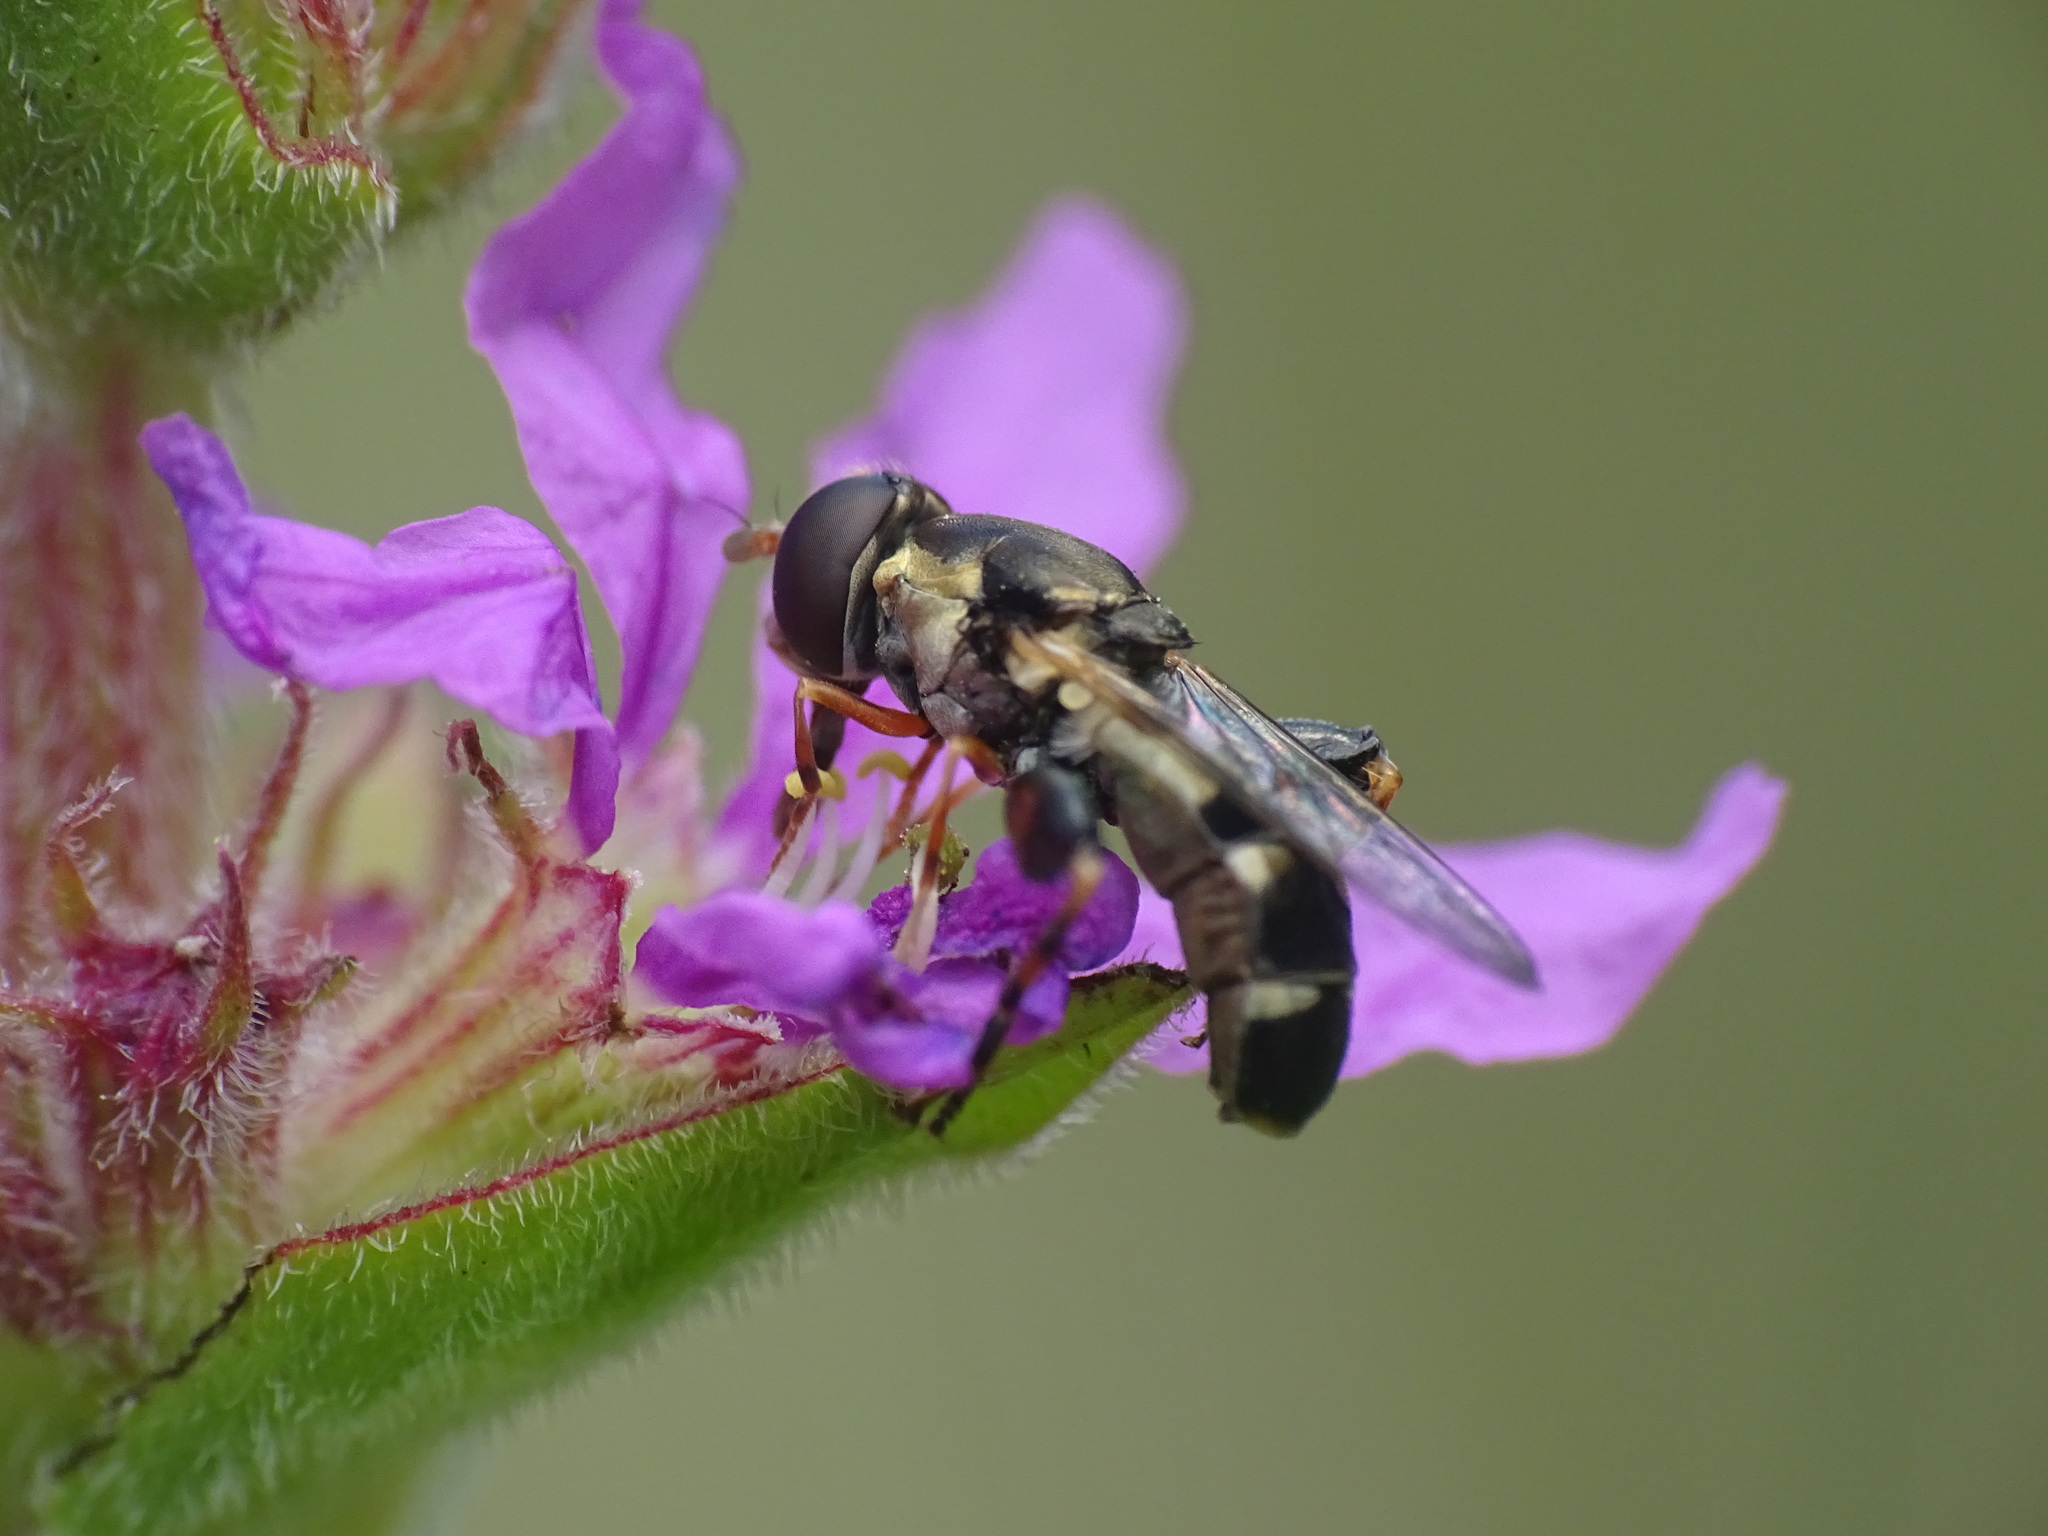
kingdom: Animalia
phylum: Arthropoda
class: Insecta
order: Diptera
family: Syrphidae
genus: Syritta
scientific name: Syritta pipiens
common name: Hover fly
